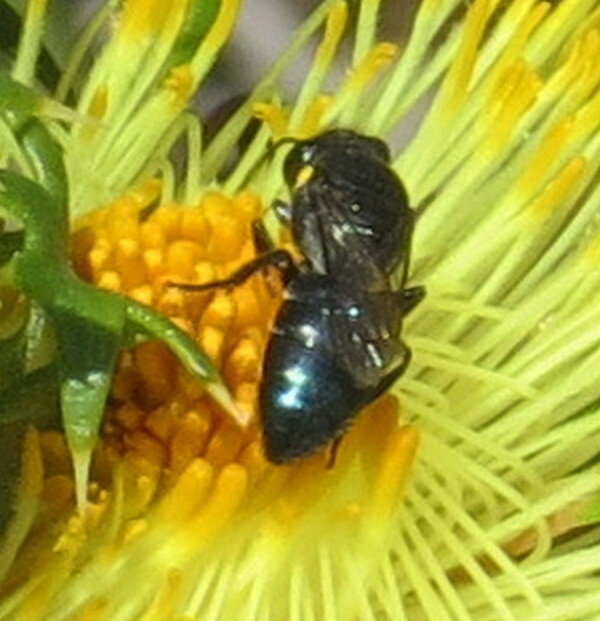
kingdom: Animalia
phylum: Arthropoda
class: Insecta
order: Hymenoptera
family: Colletidae
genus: Hylaeus
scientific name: Hylaeus alcyoneus
